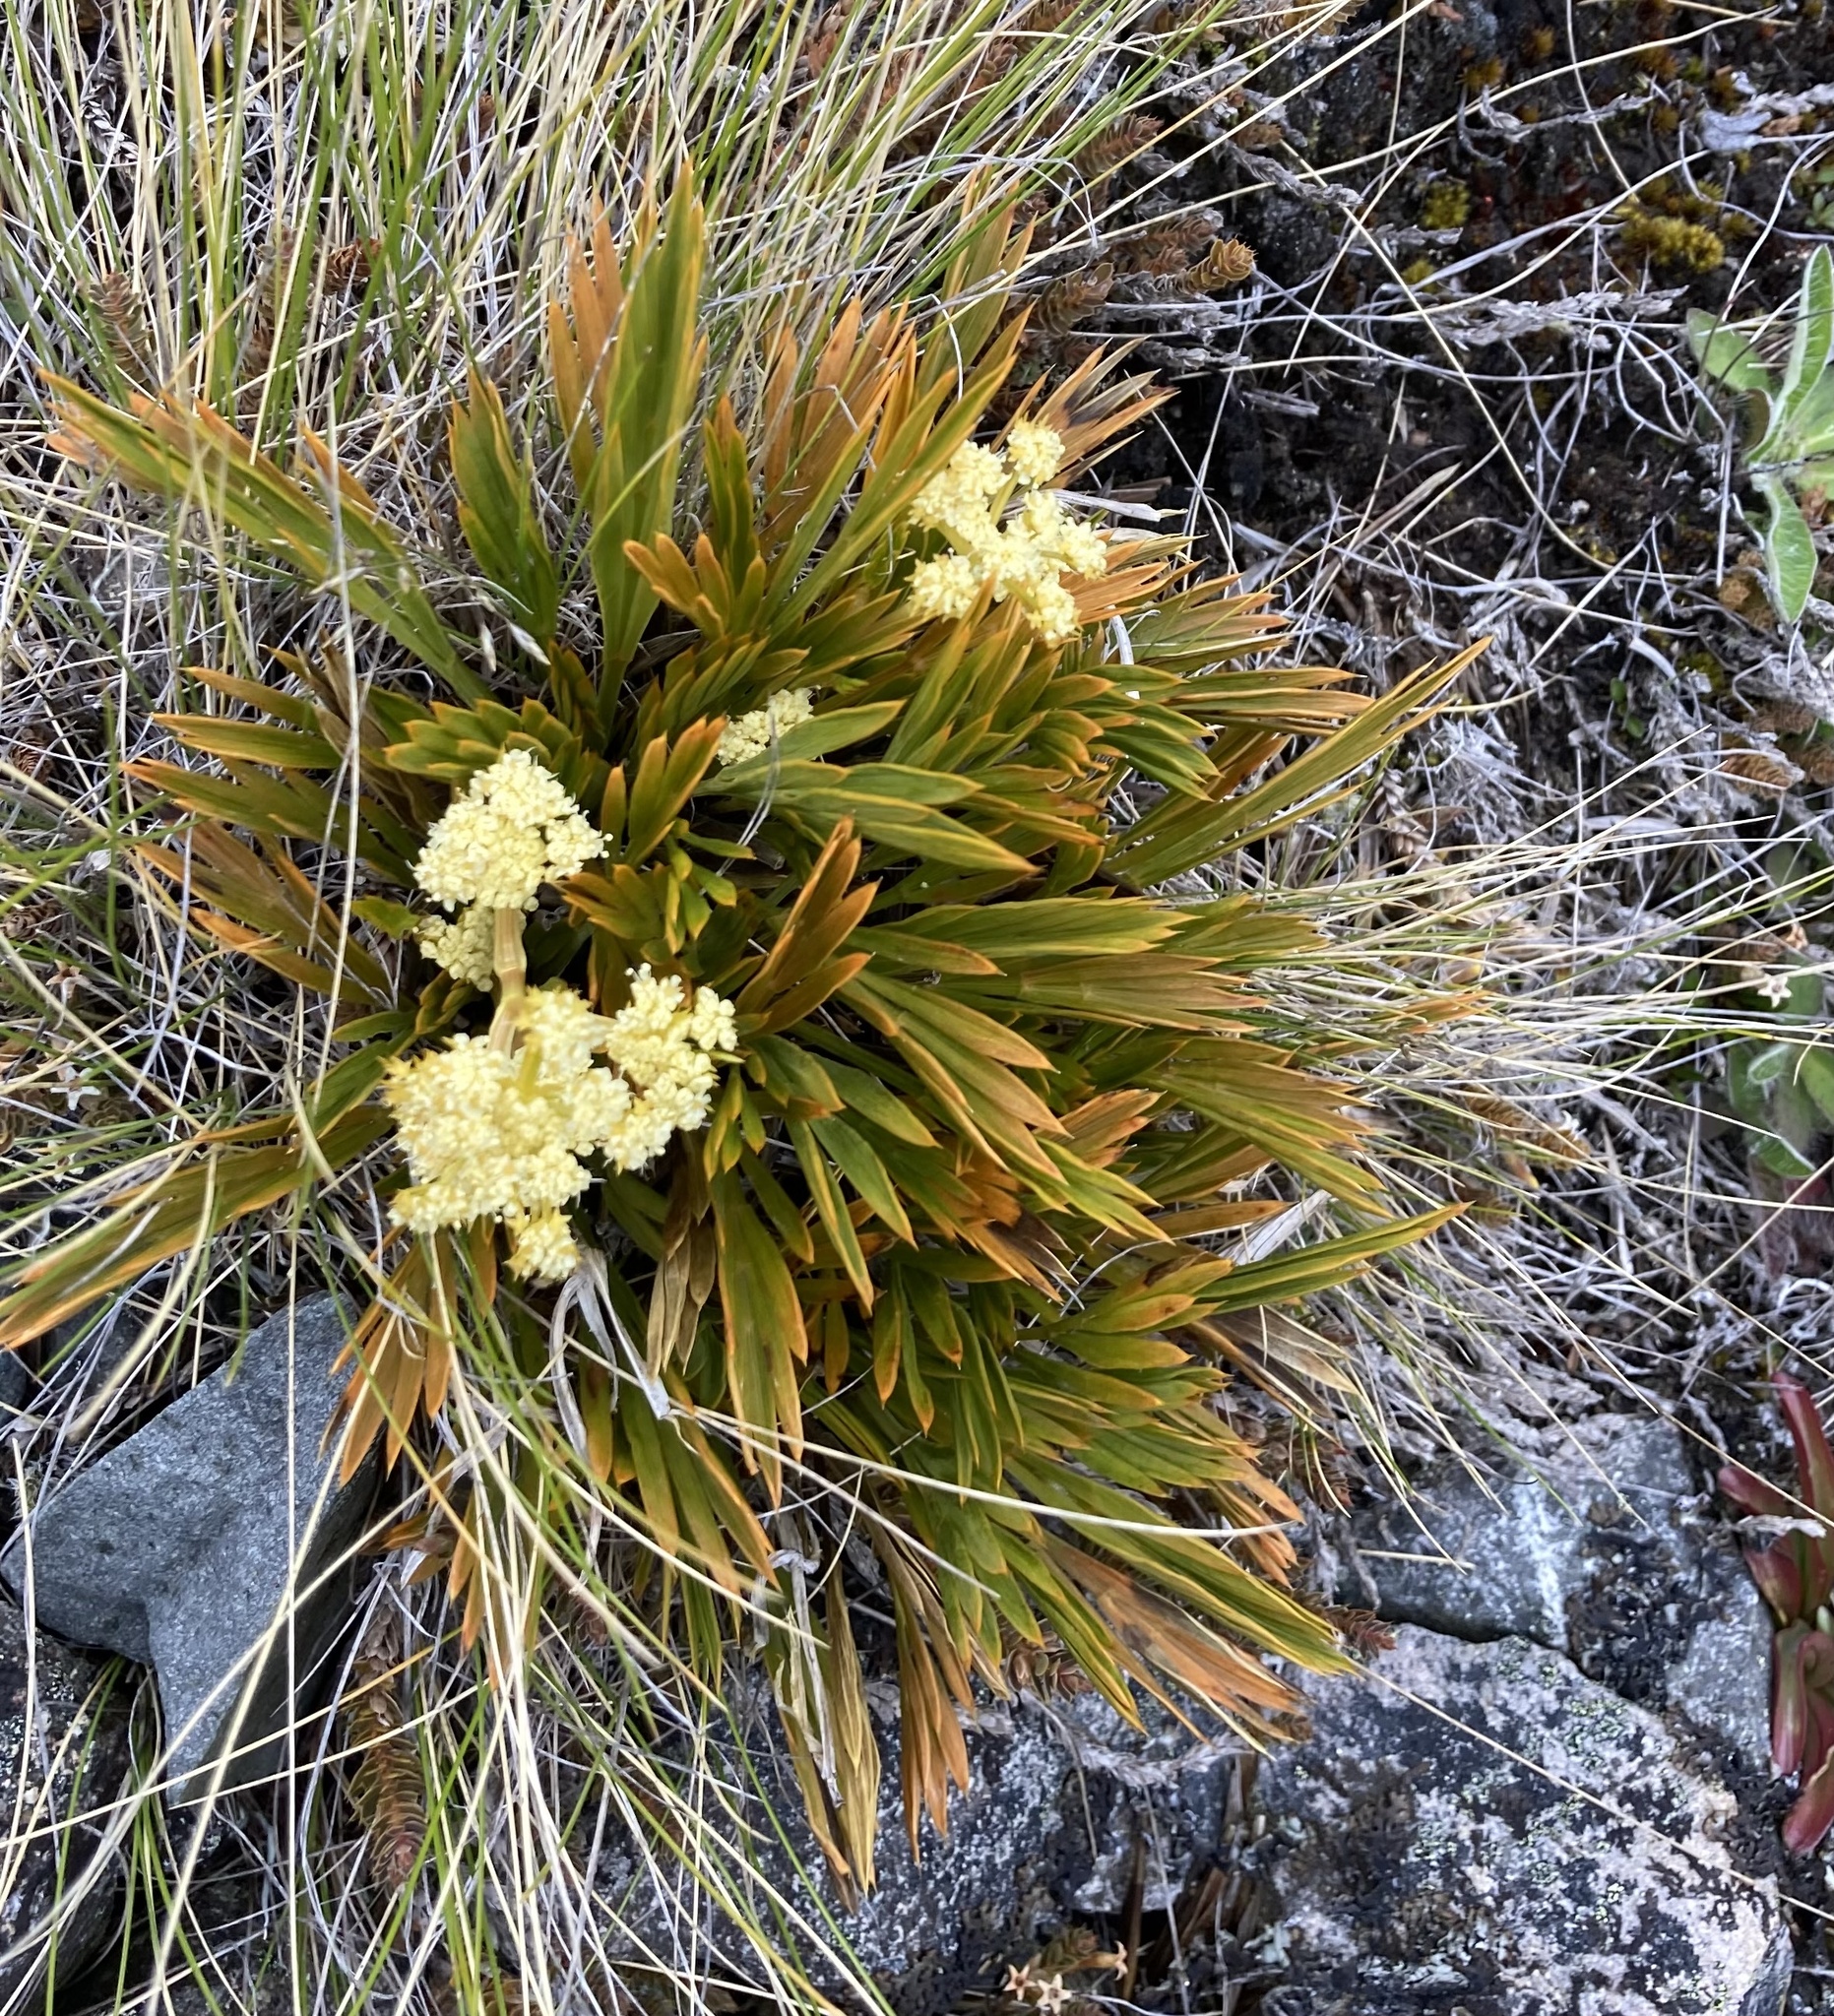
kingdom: Plantae
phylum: Tracheophyta
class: Magnoliopsida
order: Apiales
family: Apiaceae
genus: Aciphylla
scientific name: Aciphylla monroi
